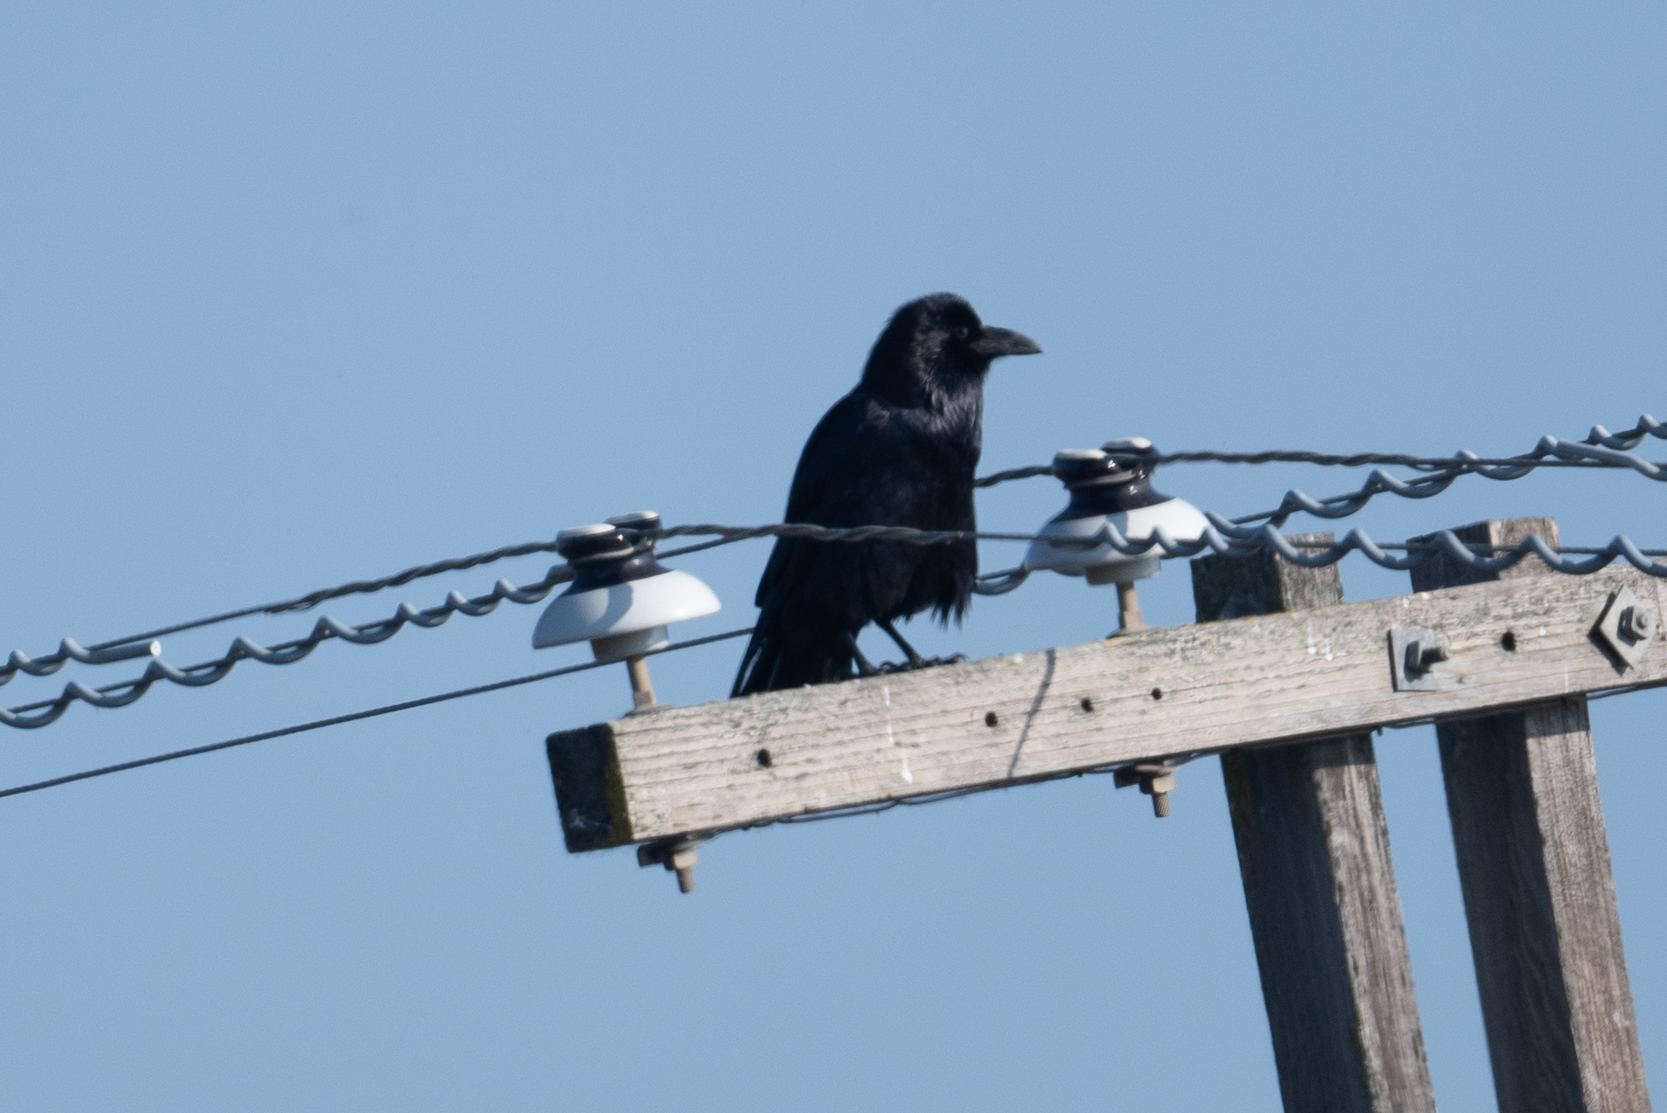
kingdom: Animalia
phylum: Chordata
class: Aves
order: Passeriformes
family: Corvidae
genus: Corvus
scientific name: Corvus corax
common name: Common raven
